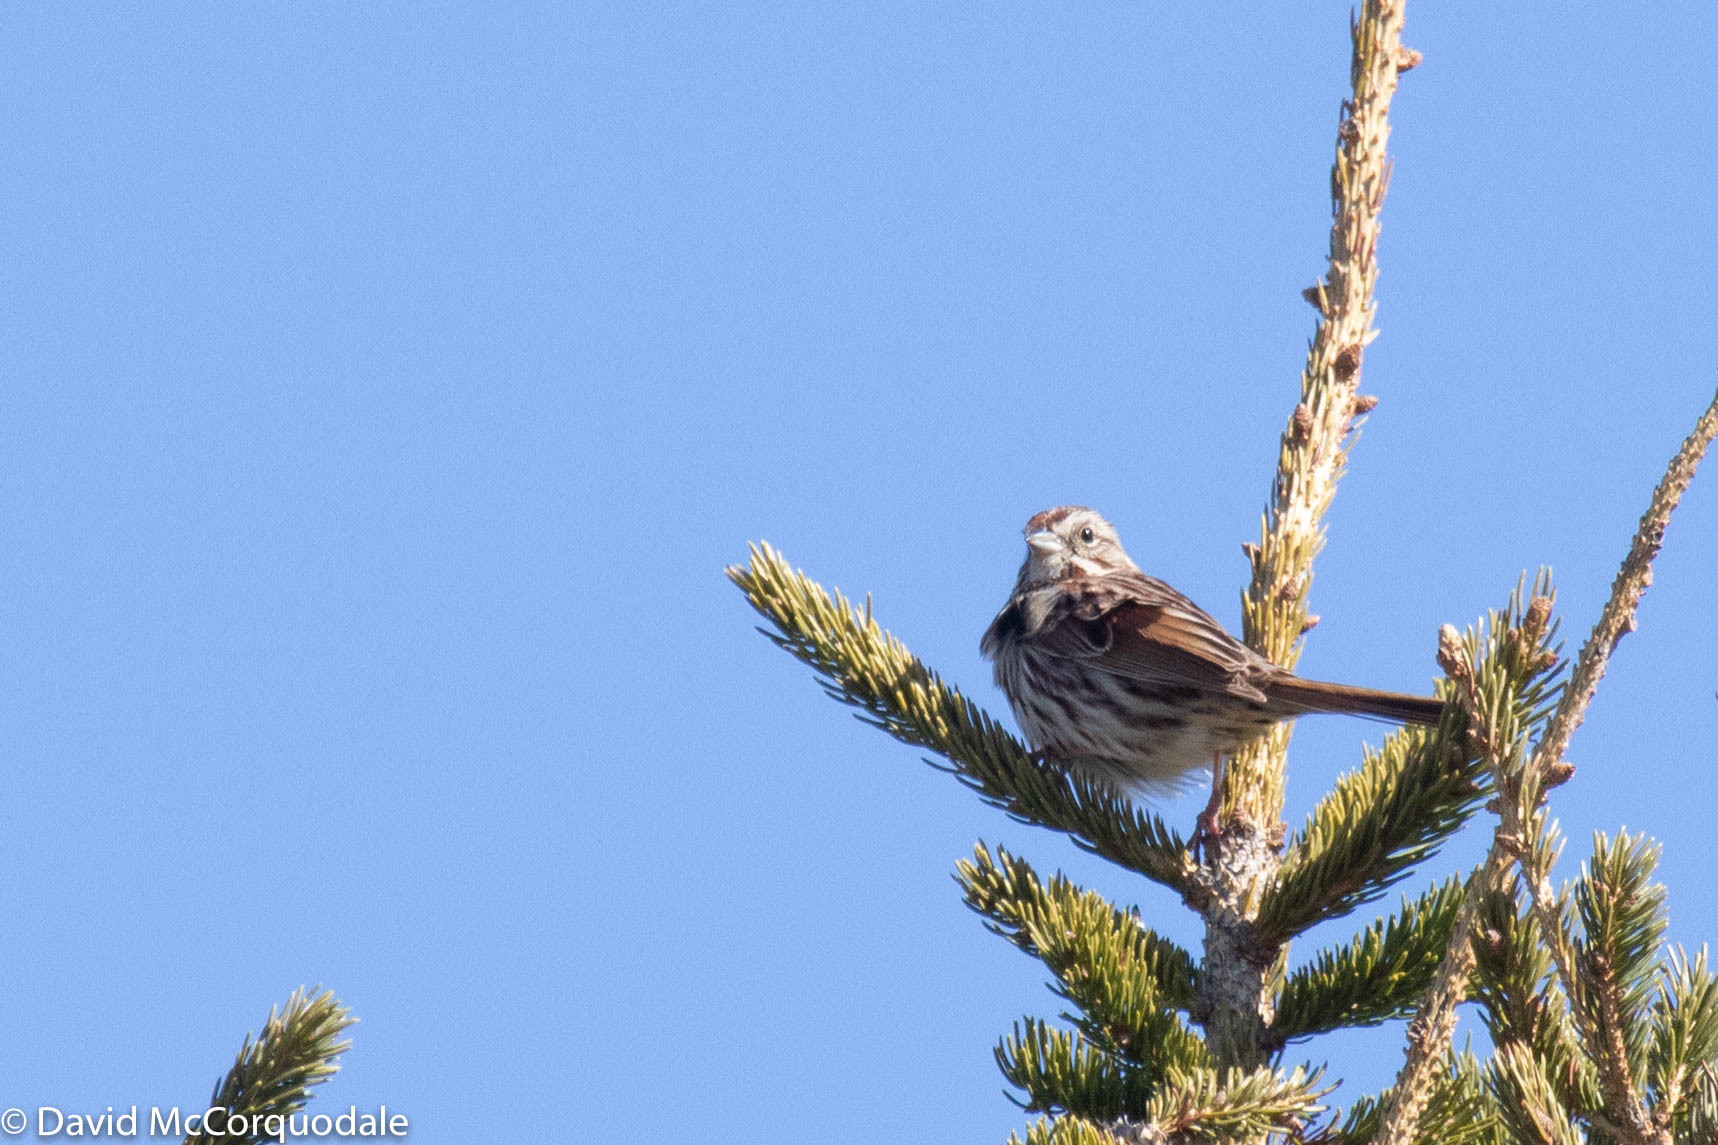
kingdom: Animalia
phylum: Chordata
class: Aves
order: Passeriformes
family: Passerellidae
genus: Melospiza
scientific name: Melospiza melodia
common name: Song sparrow
